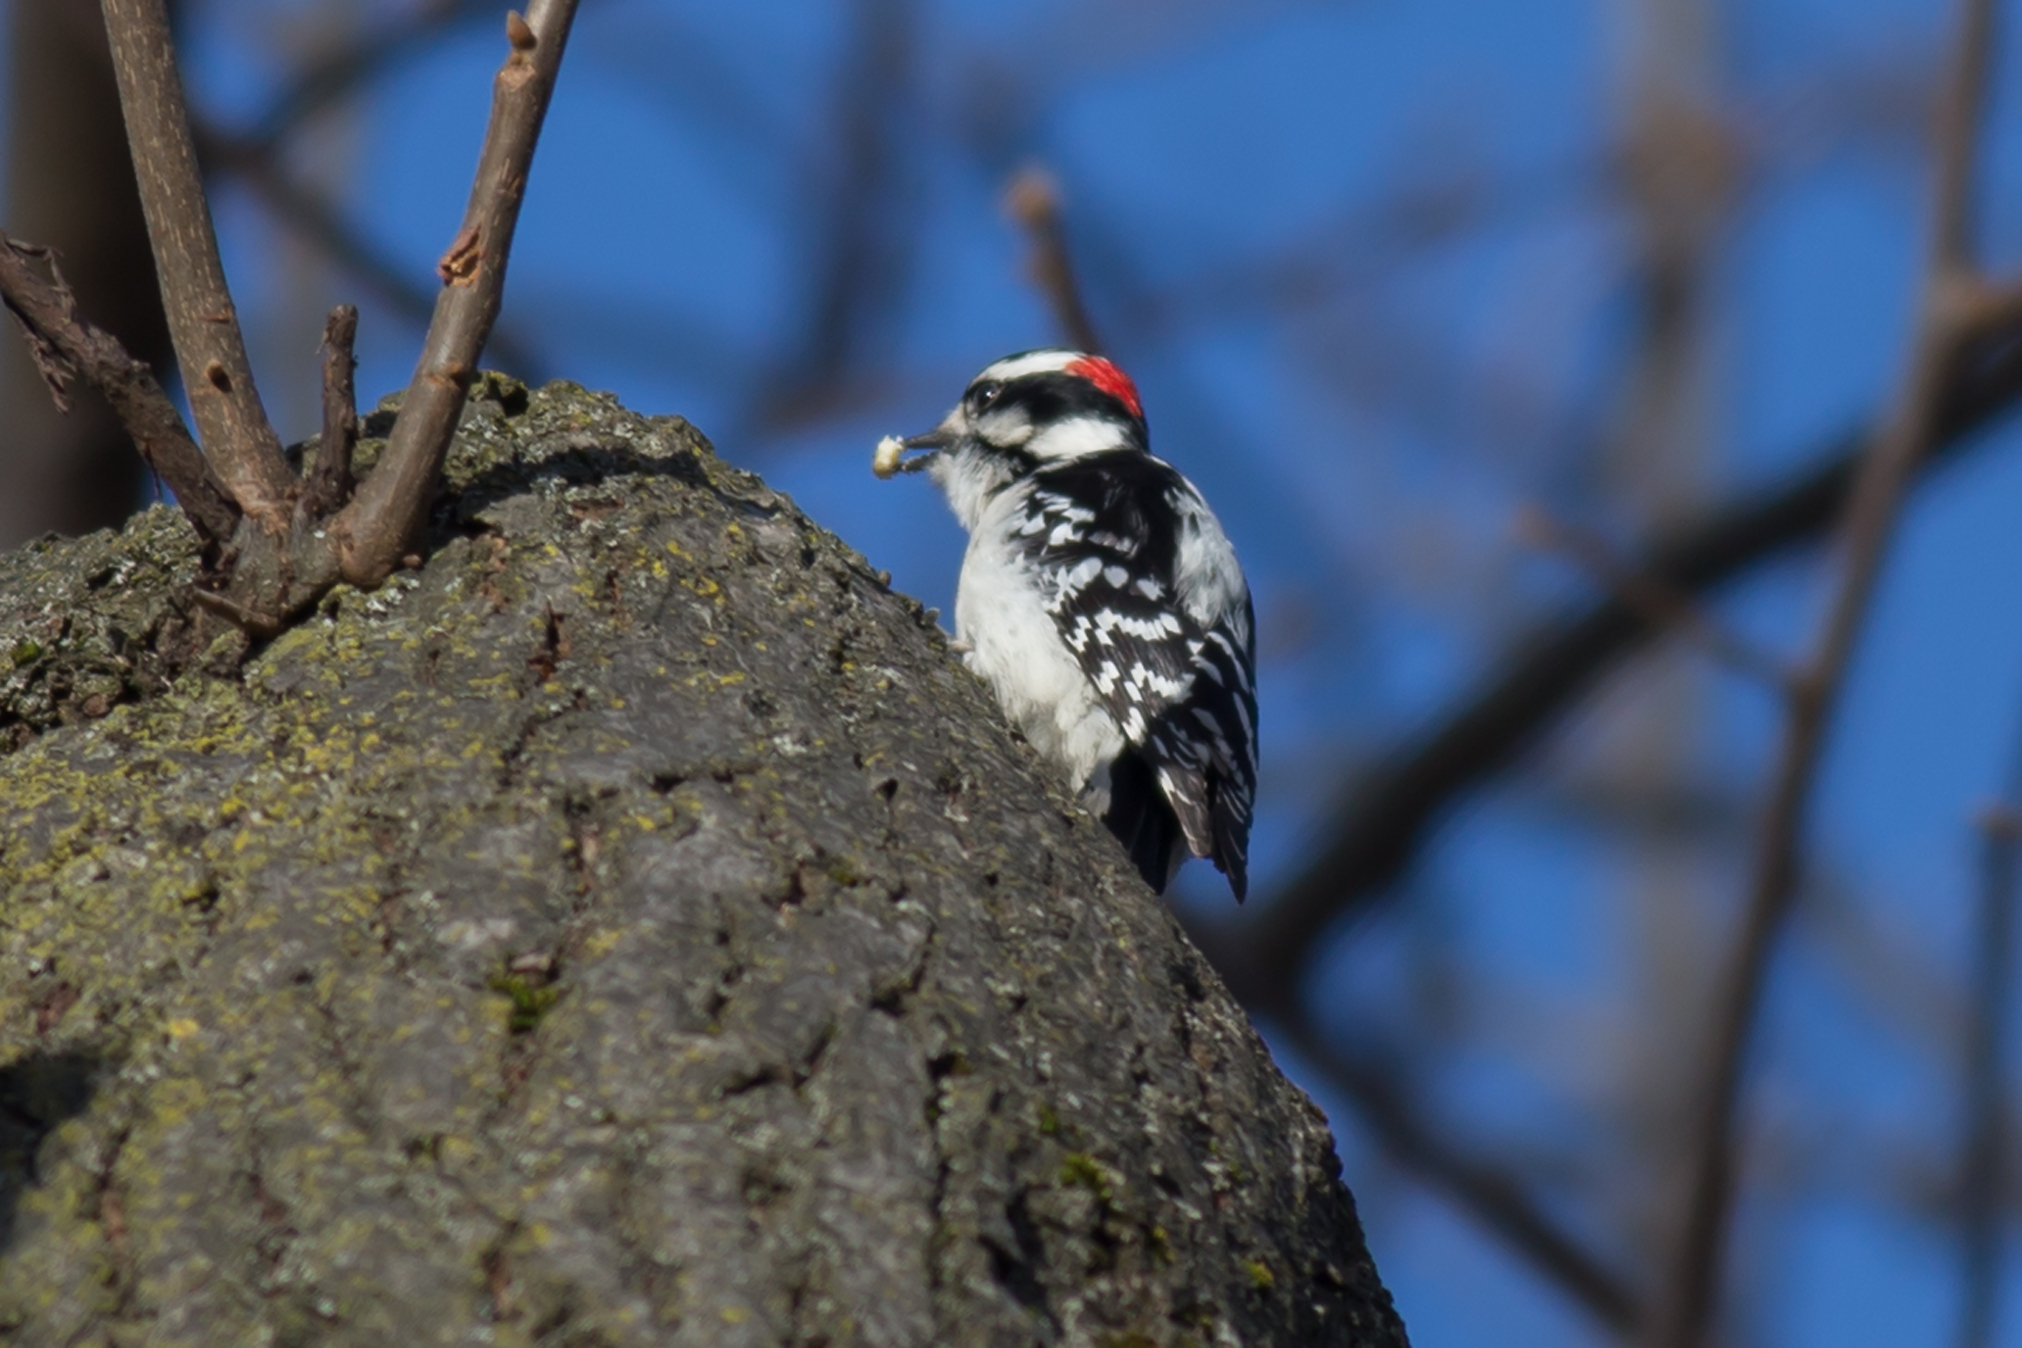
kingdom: Animalia
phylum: Chordata
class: Aves
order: Piciformes
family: Picidae
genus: Dryobates
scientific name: Dryobates pubescens
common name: Downy woodpecker
